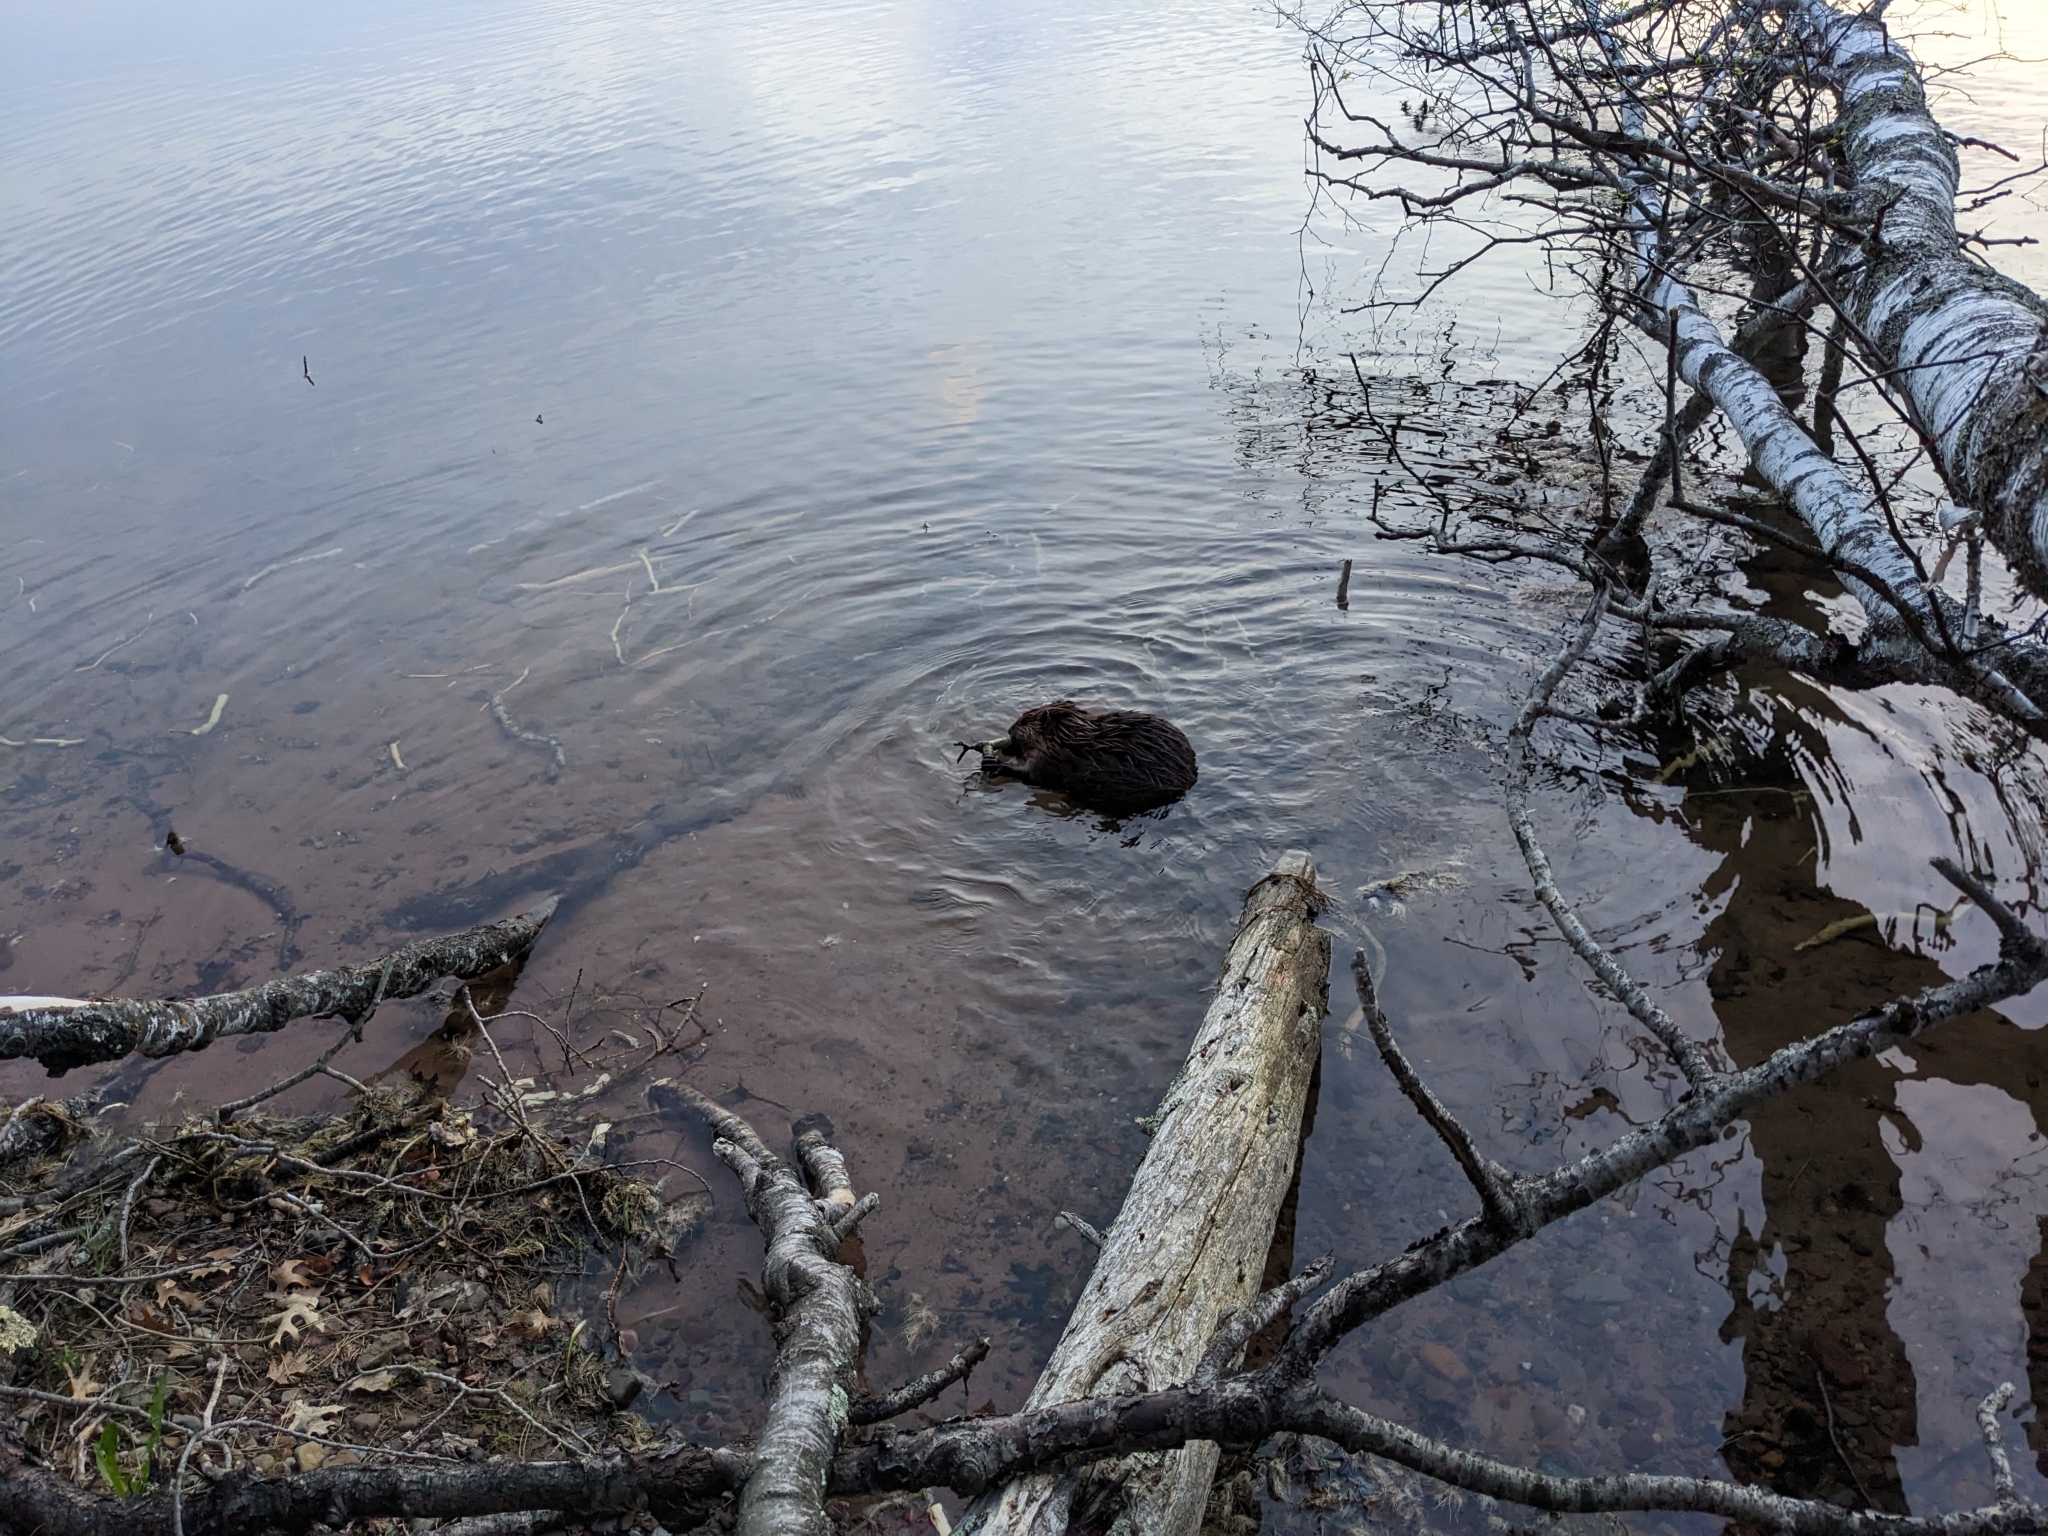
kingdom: Animalia
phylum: Chordata
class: Mammalia
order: Rodentia
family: Castoridae
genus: Castor
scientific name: Castor canadensis
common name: American beaver
